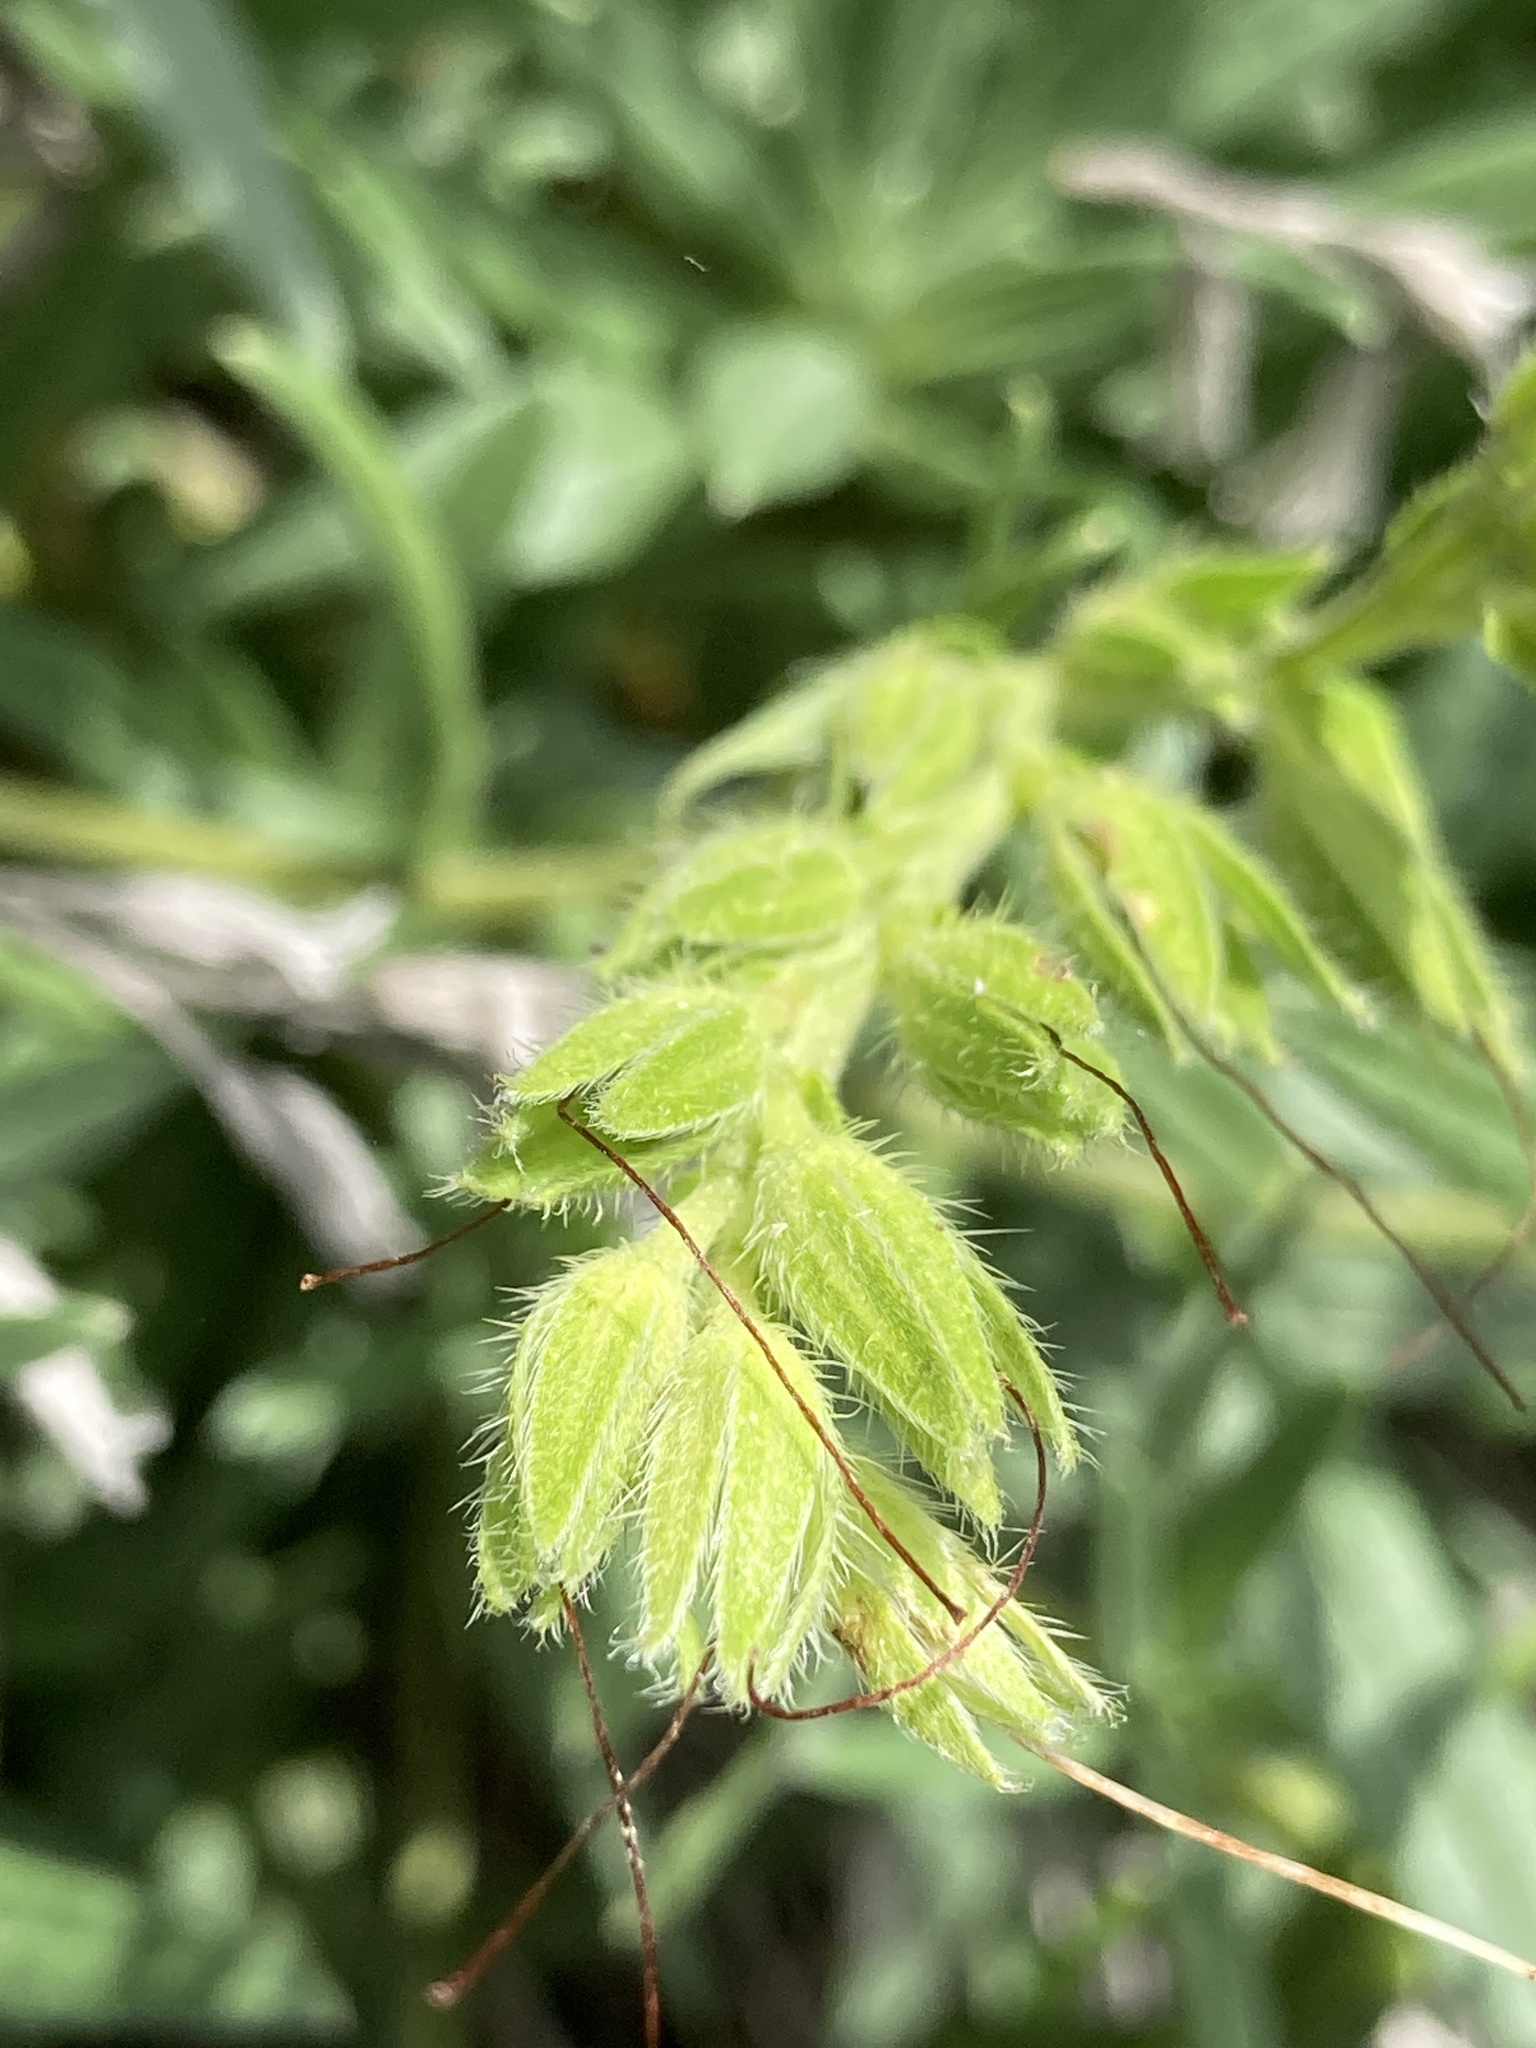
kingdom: Plantae
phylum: Tracheophyta
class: Magnoliopsida
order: Boraginales
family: Boraginaceae
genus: Onosma
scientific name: Onosma simplicissima
